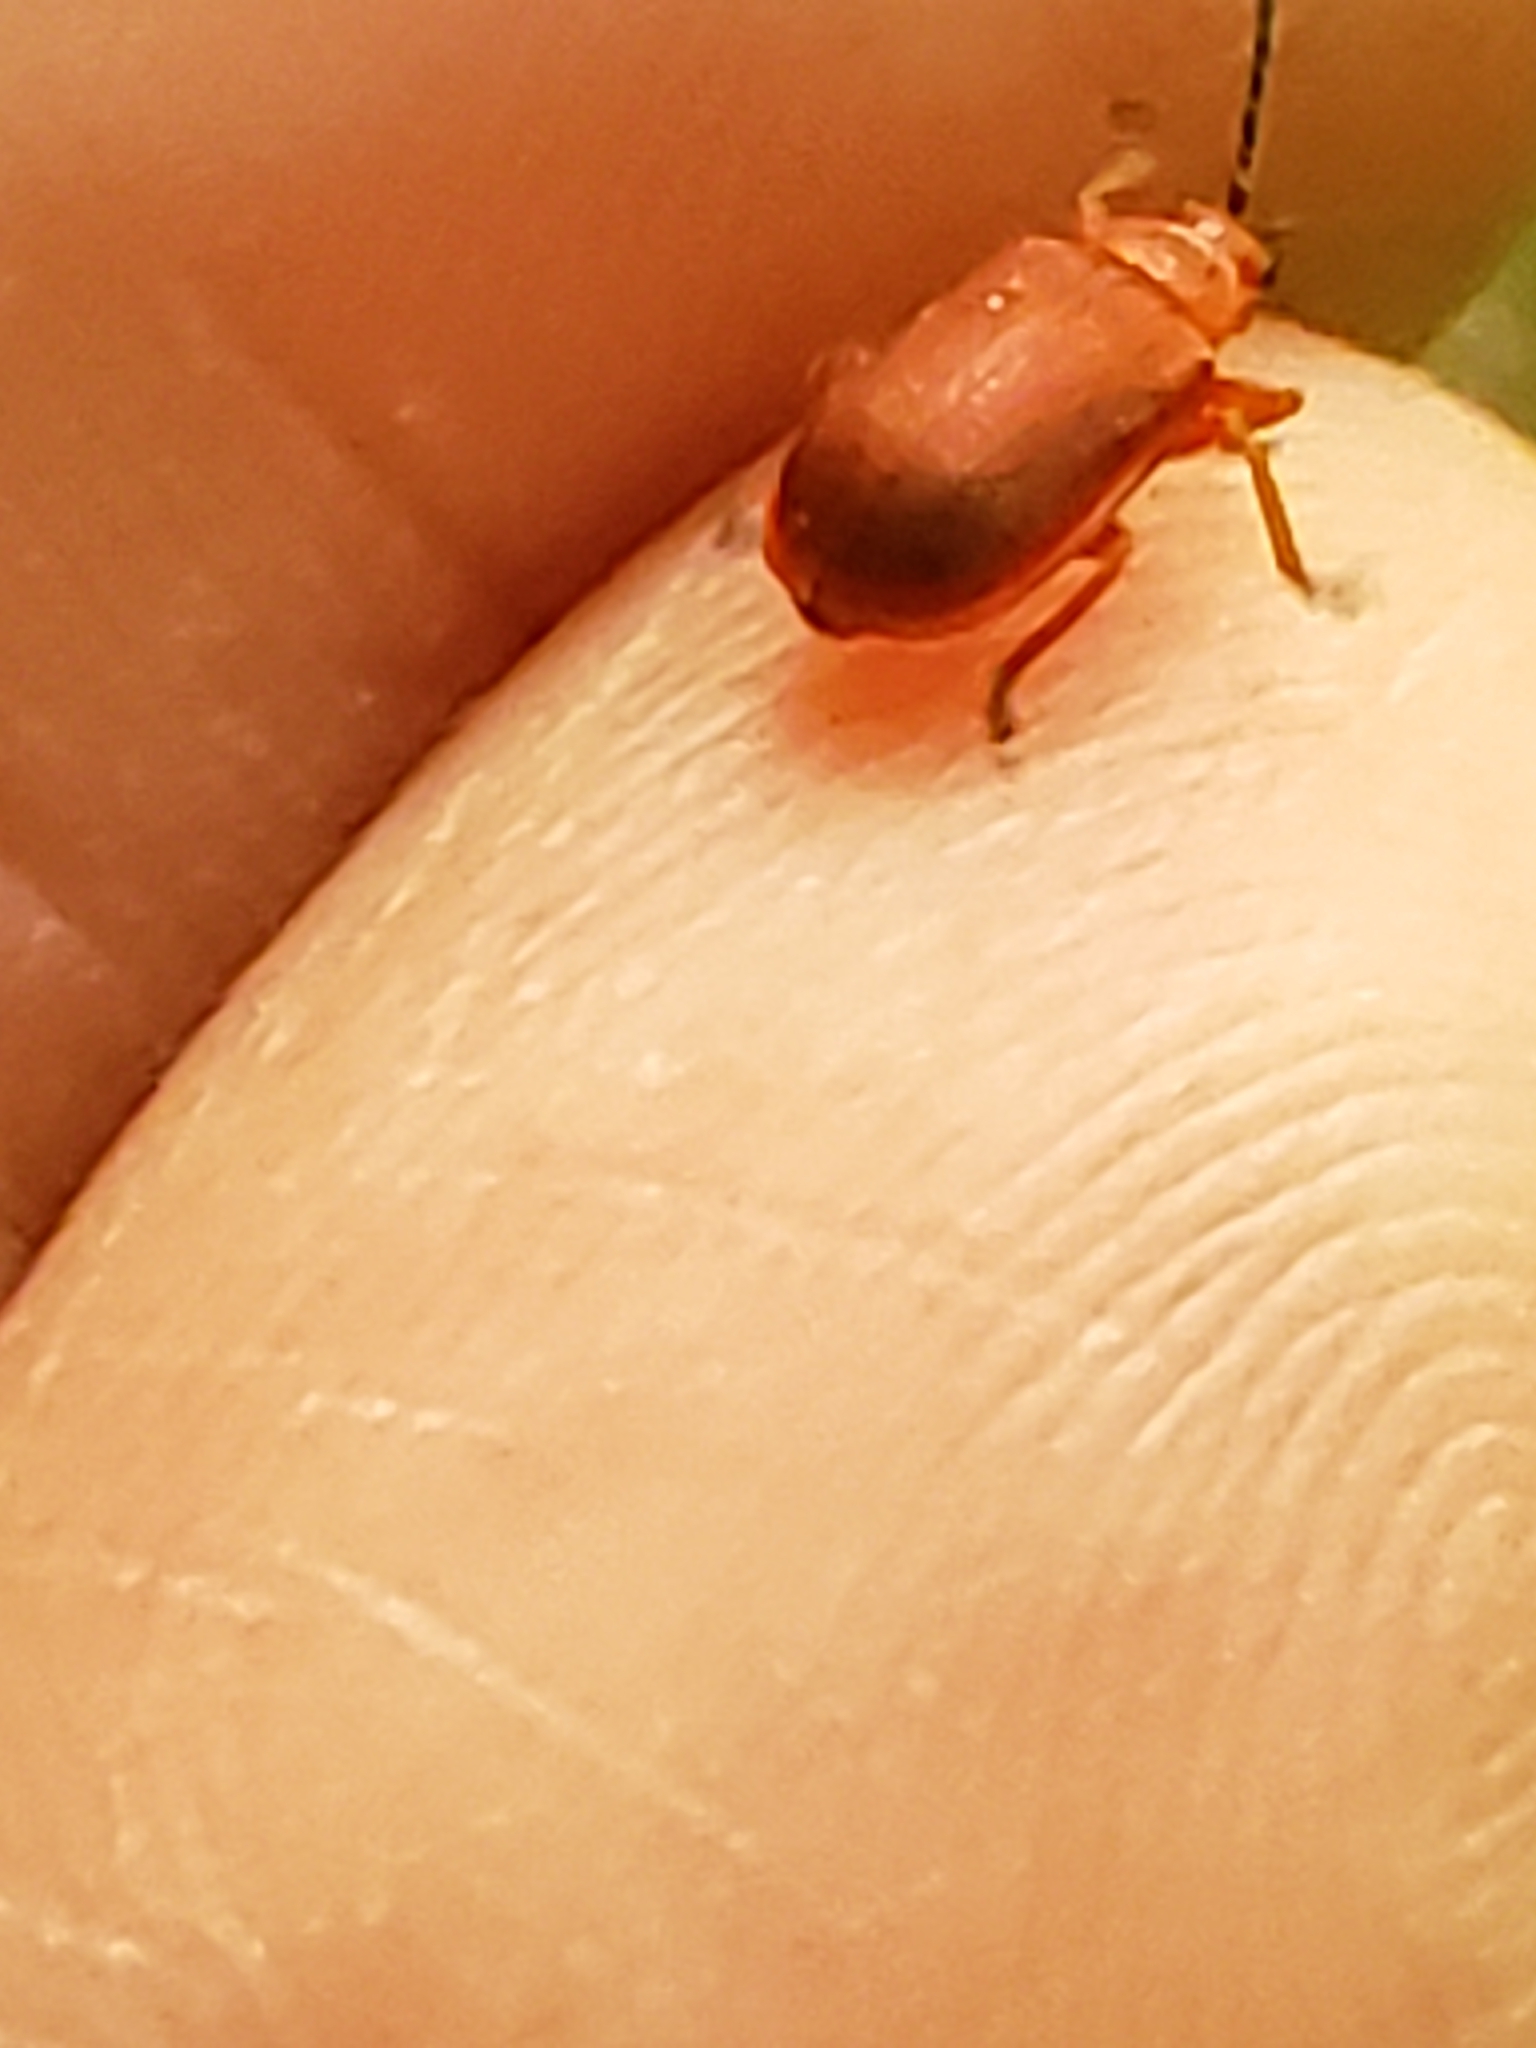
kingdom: Animalia
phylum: Arthropoda
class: Insecta
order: Coleoptera
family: Chrysomelidae
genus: Tricholochmaea
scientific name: Tricholochmaea cavicollis
